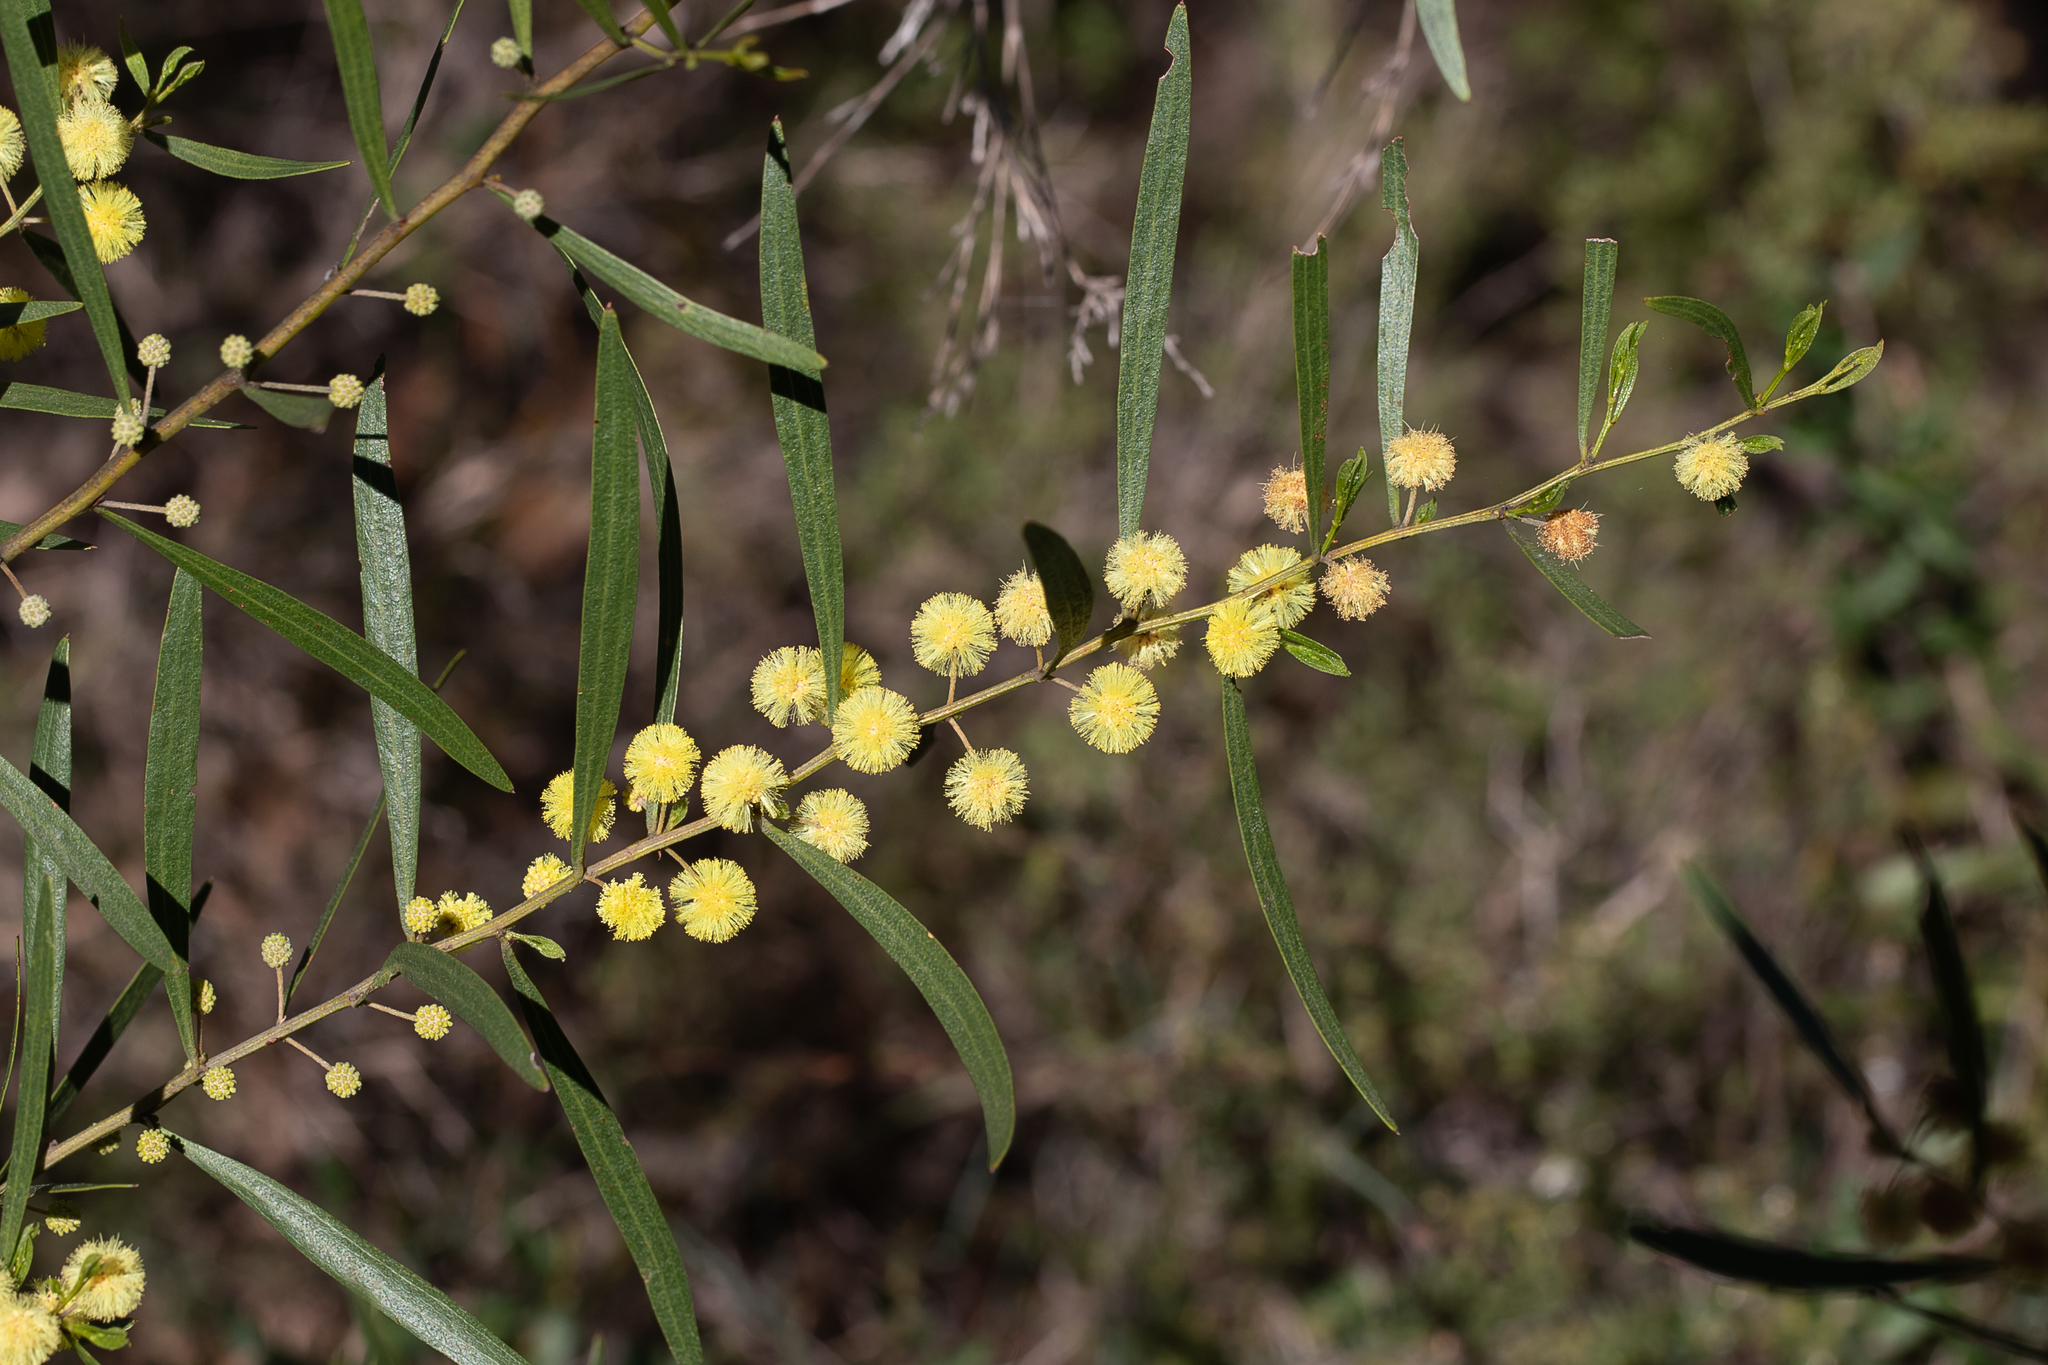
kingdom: Plantae
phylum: Tracheophyta
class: Magnoliopsida
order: Fabales
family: Fabaceae
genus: Acacia
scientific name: Acacia verniciflua
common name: Varnish wattle
